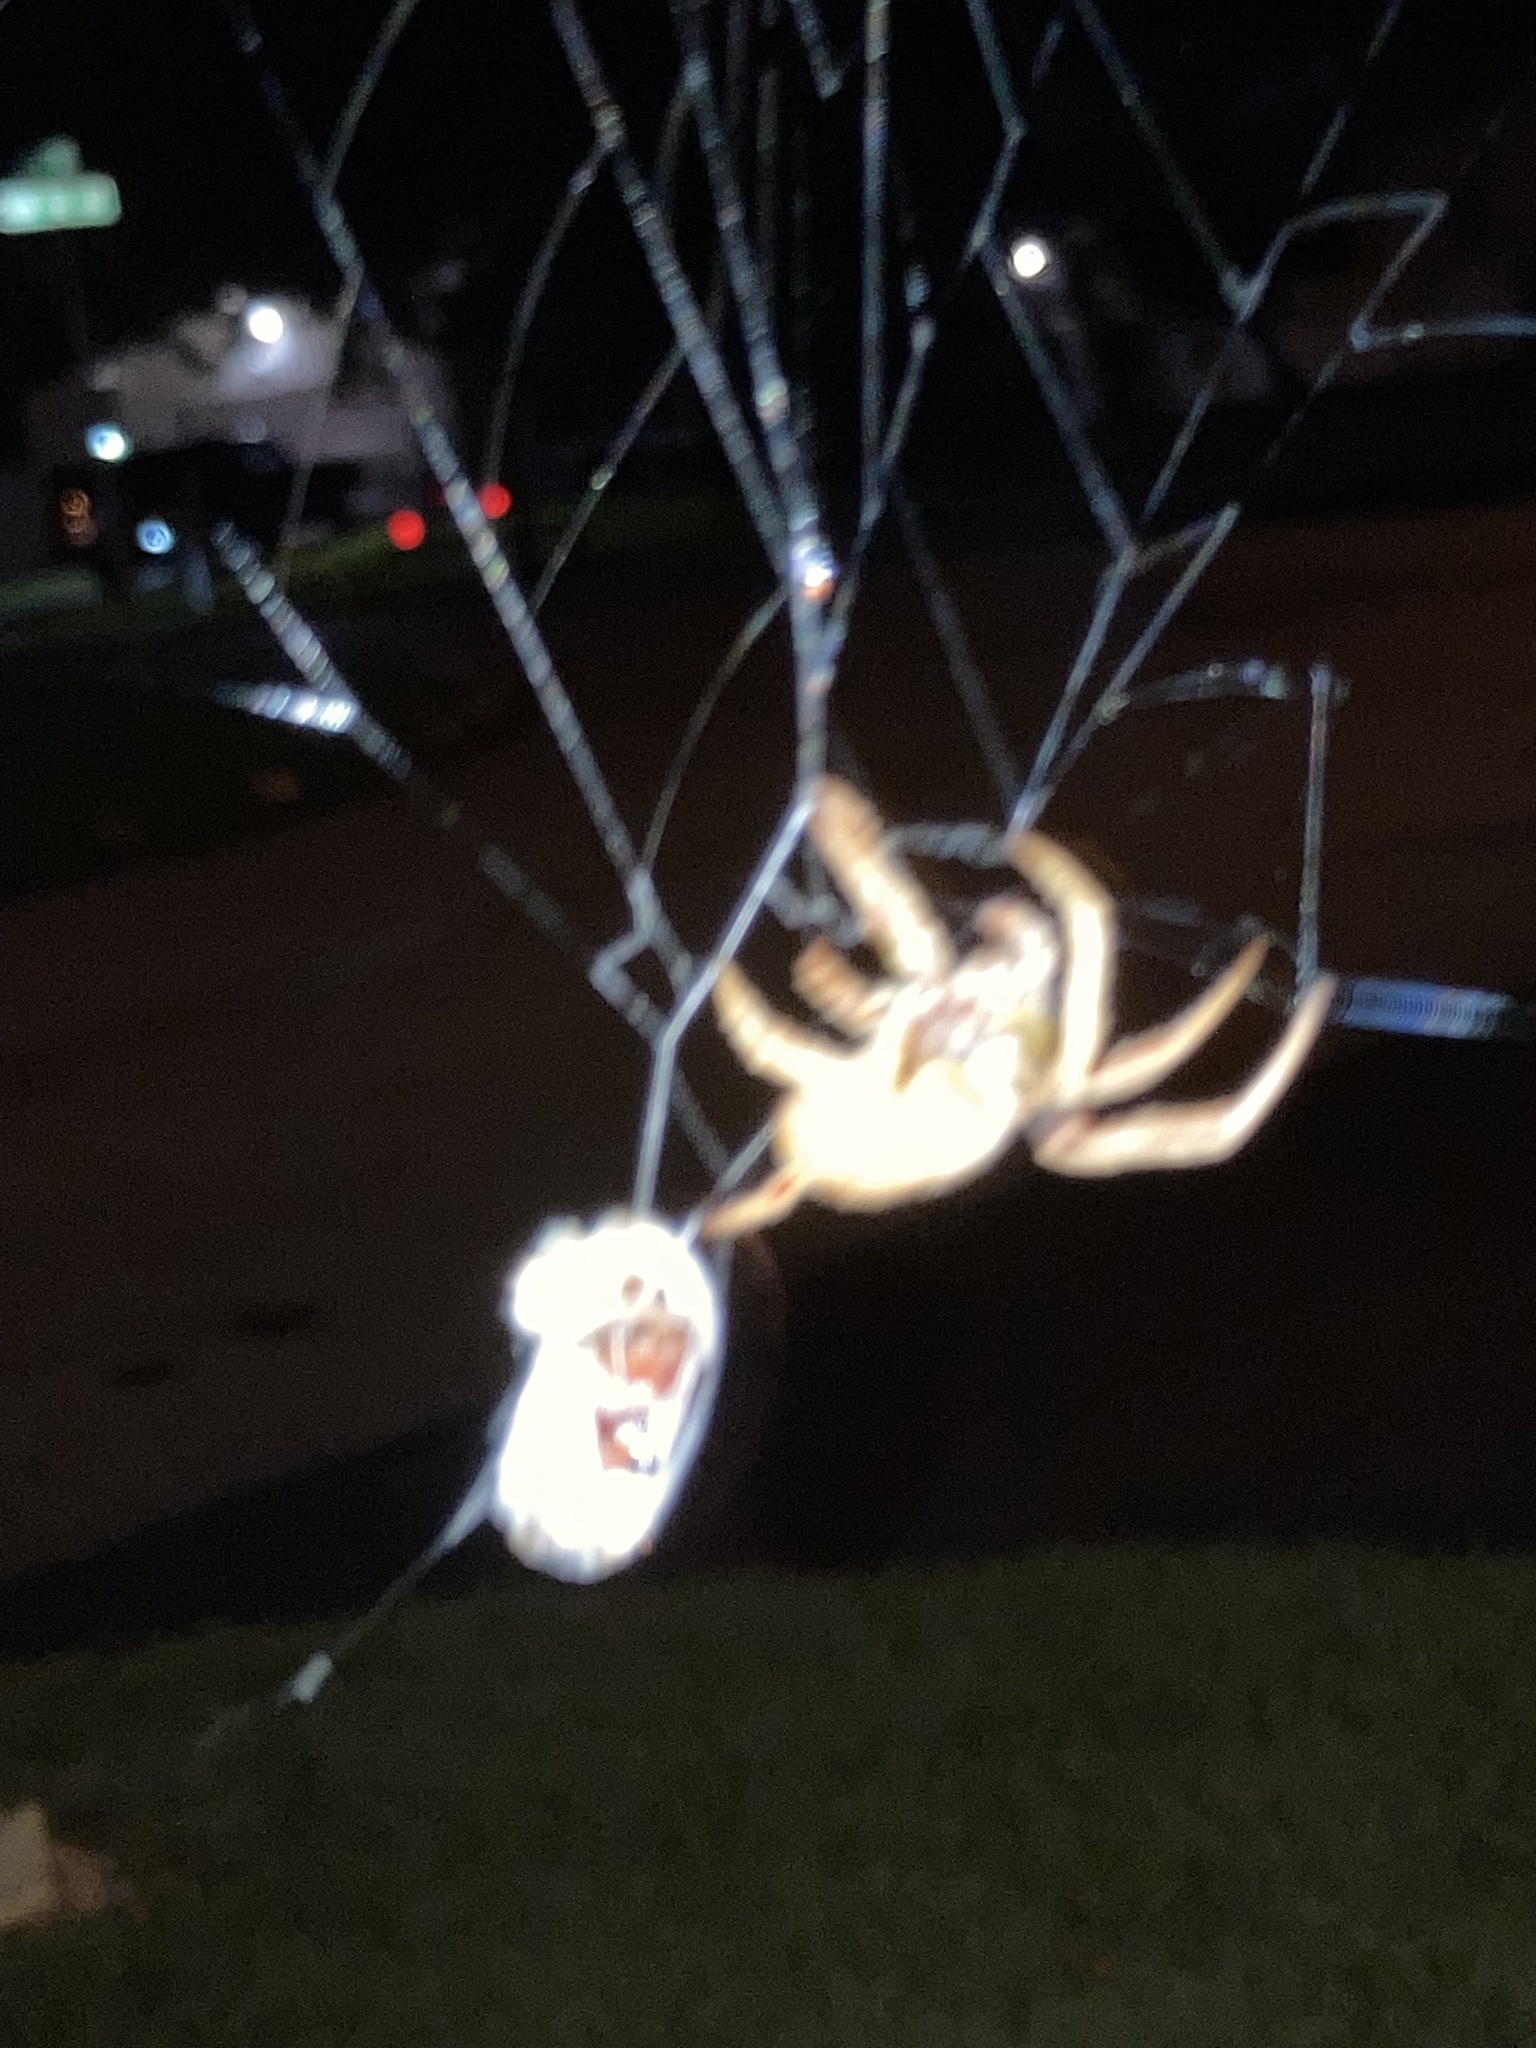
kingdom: Animalia
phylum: Arthropoda
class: Arachnida
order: Araneae
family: Araneidae
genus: Eriophora
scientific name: Eriophora ravilla
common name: Orb weavers
